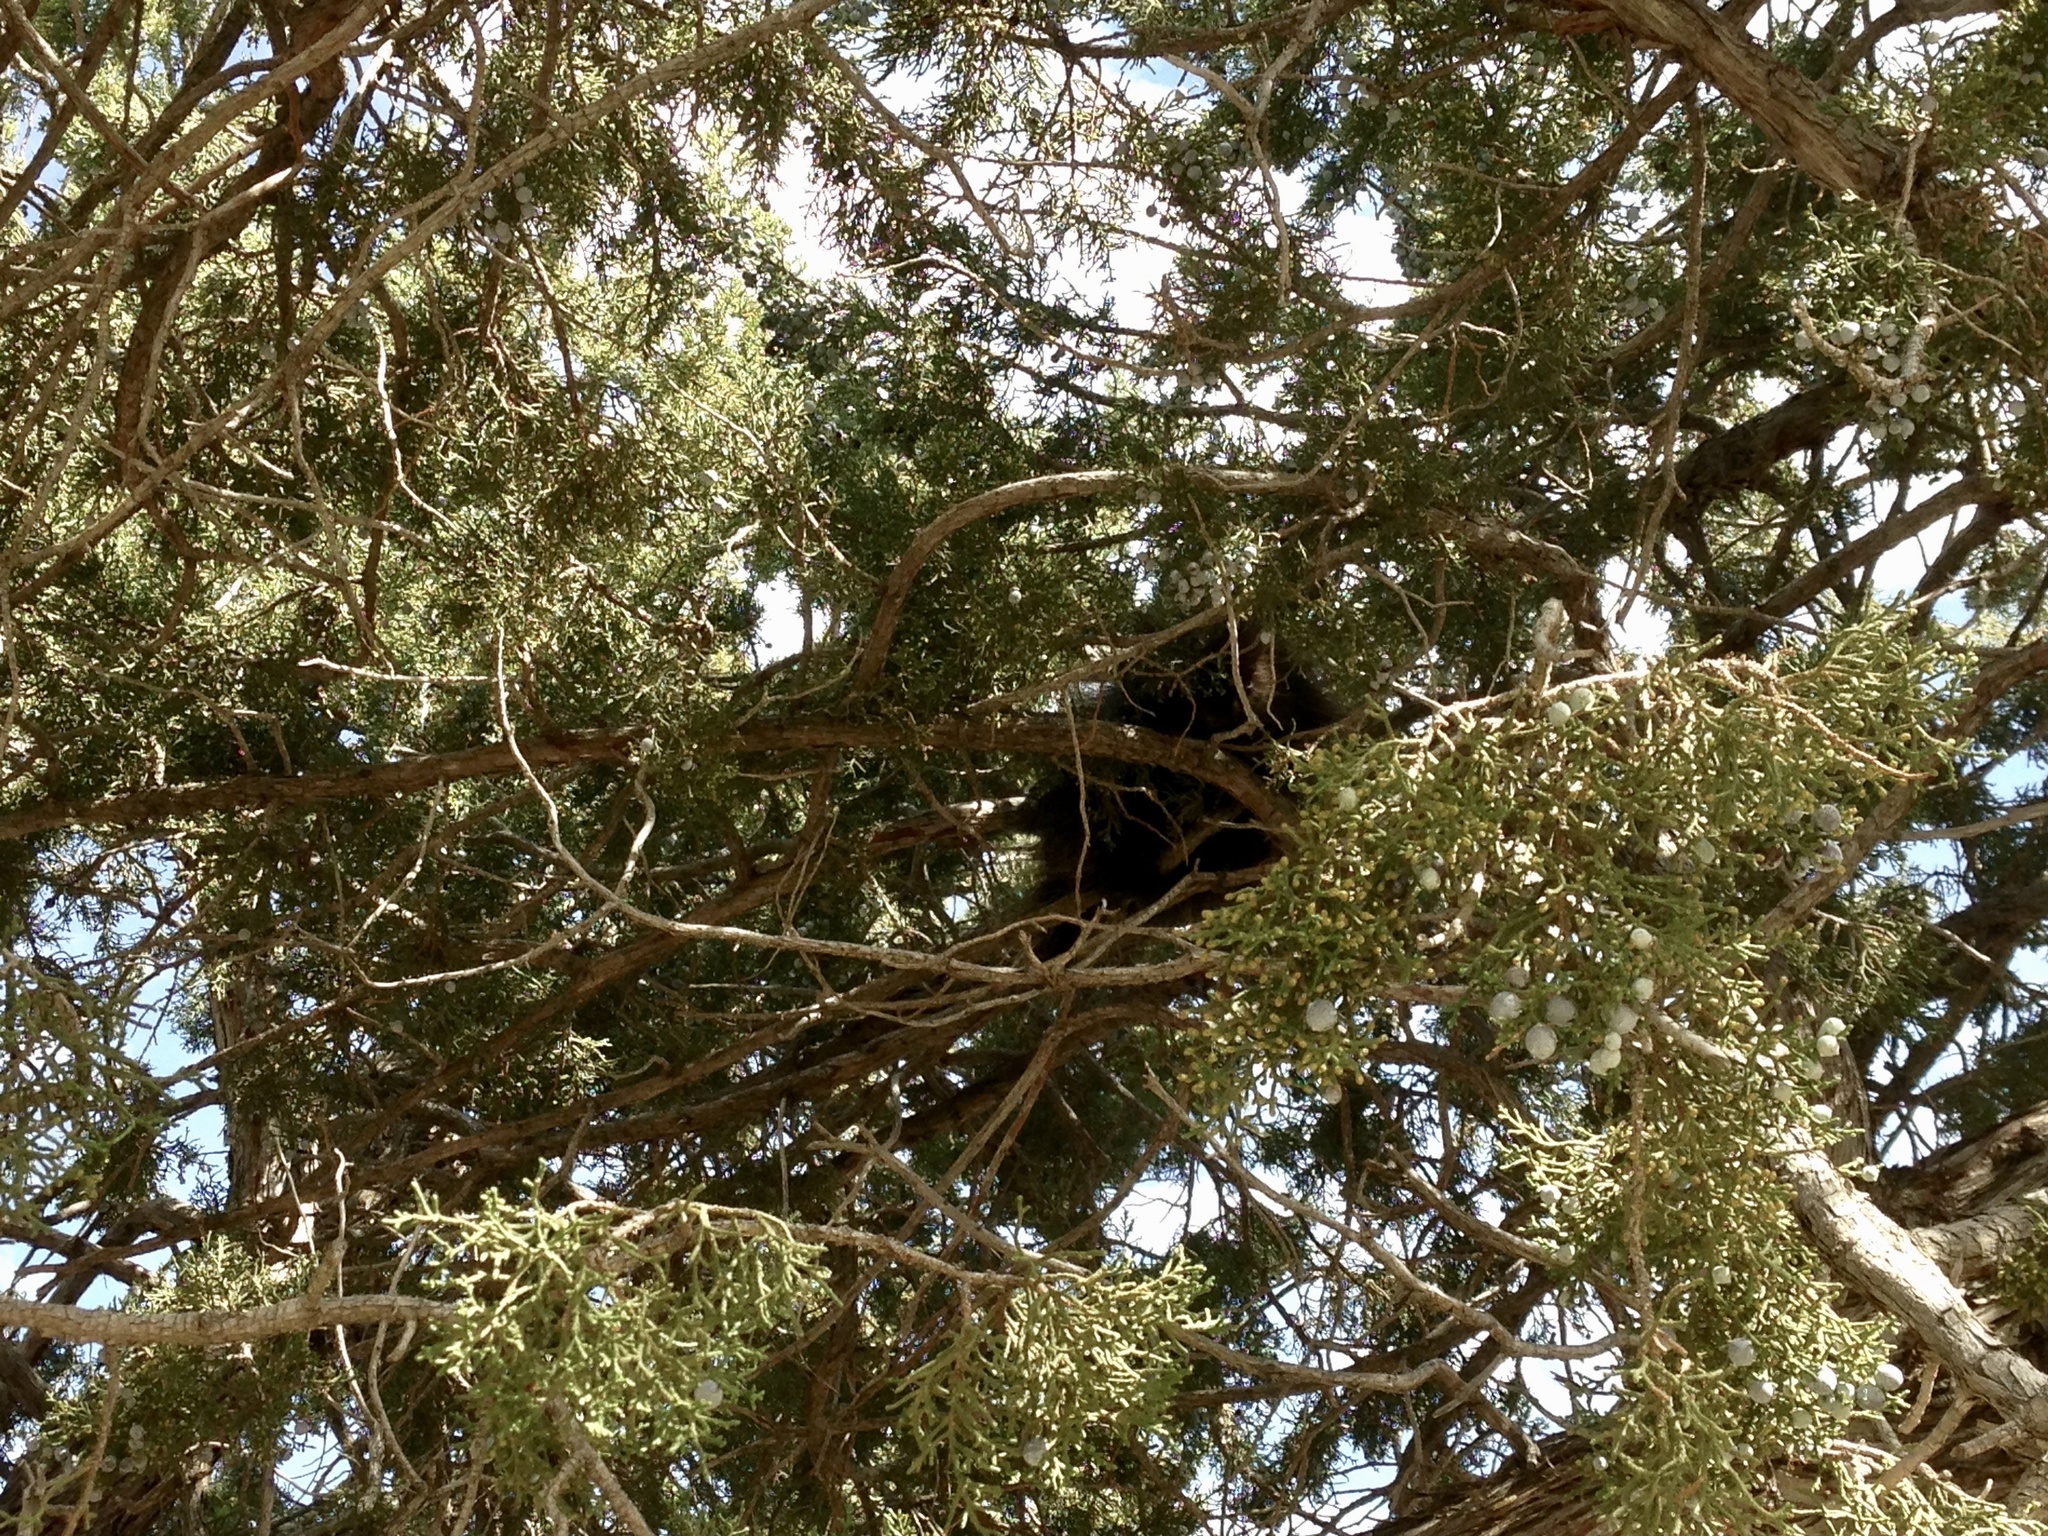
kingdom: Animalia
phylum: Chordata
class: Mammalia
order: Rodentia
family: Erethizontidae
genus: Erethizon
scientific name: Erethizon dorsatus
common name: North american porcupine
